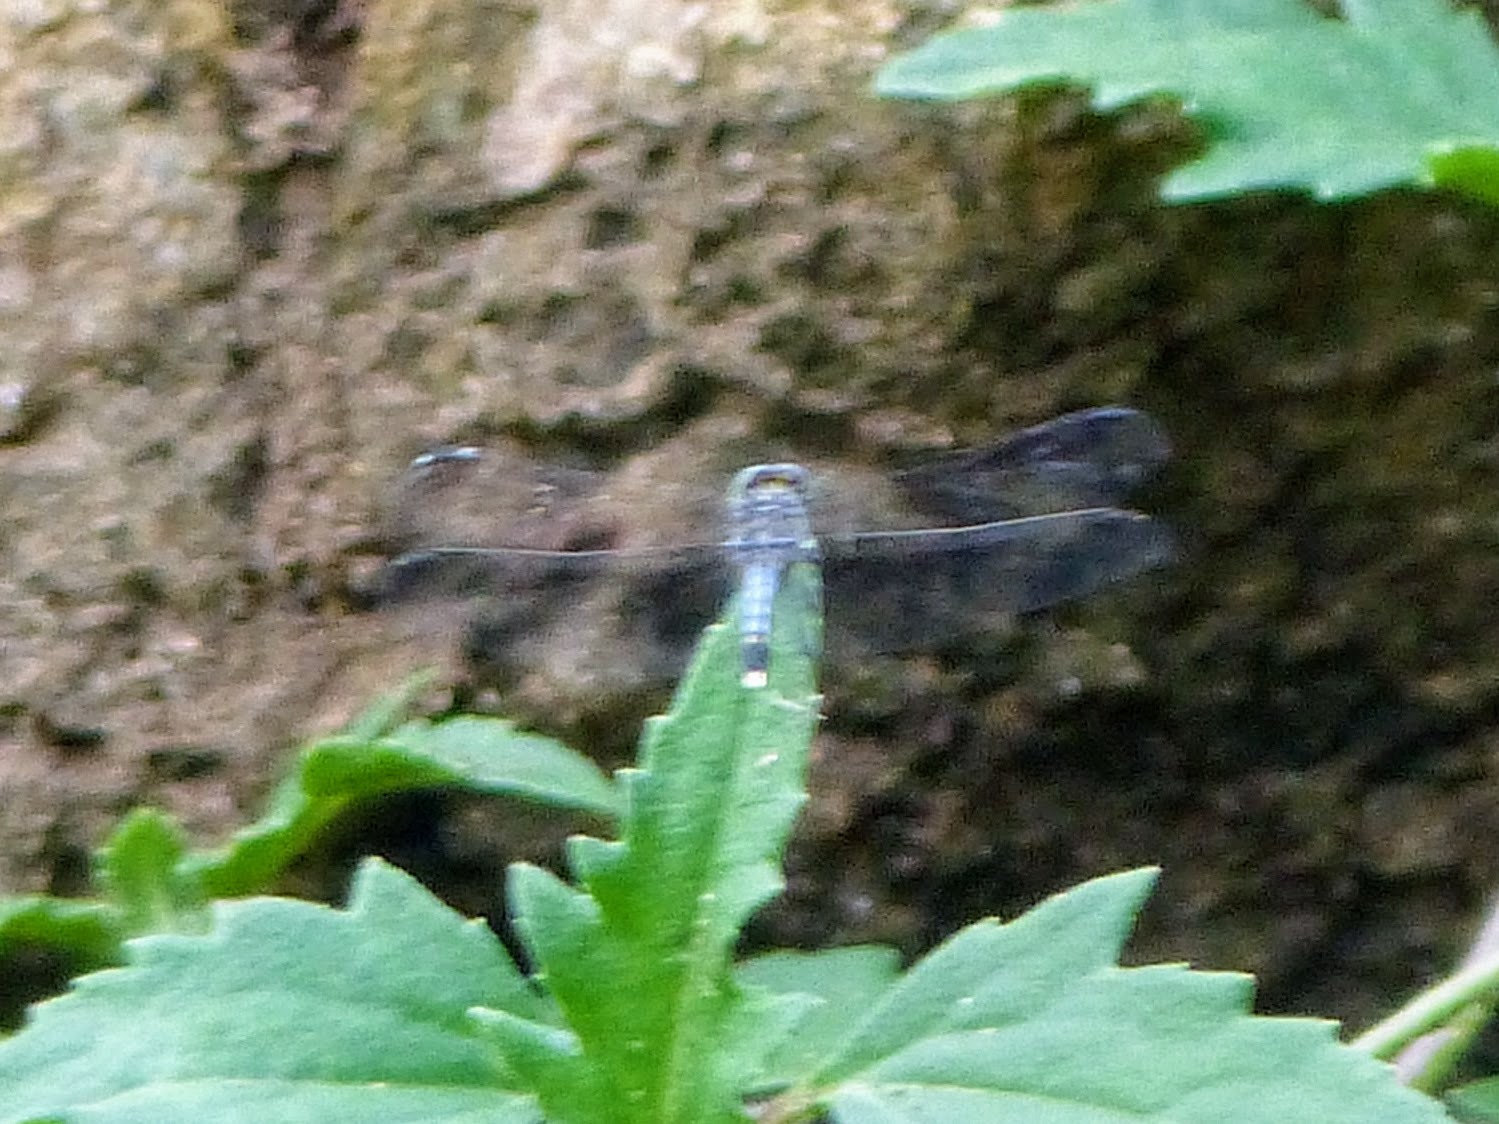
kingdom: Animalia
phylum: Arthropoda
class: Insecta
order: Odonata
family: Libellulidae
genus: Diplacodes
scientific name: Diplacodes trivialis
